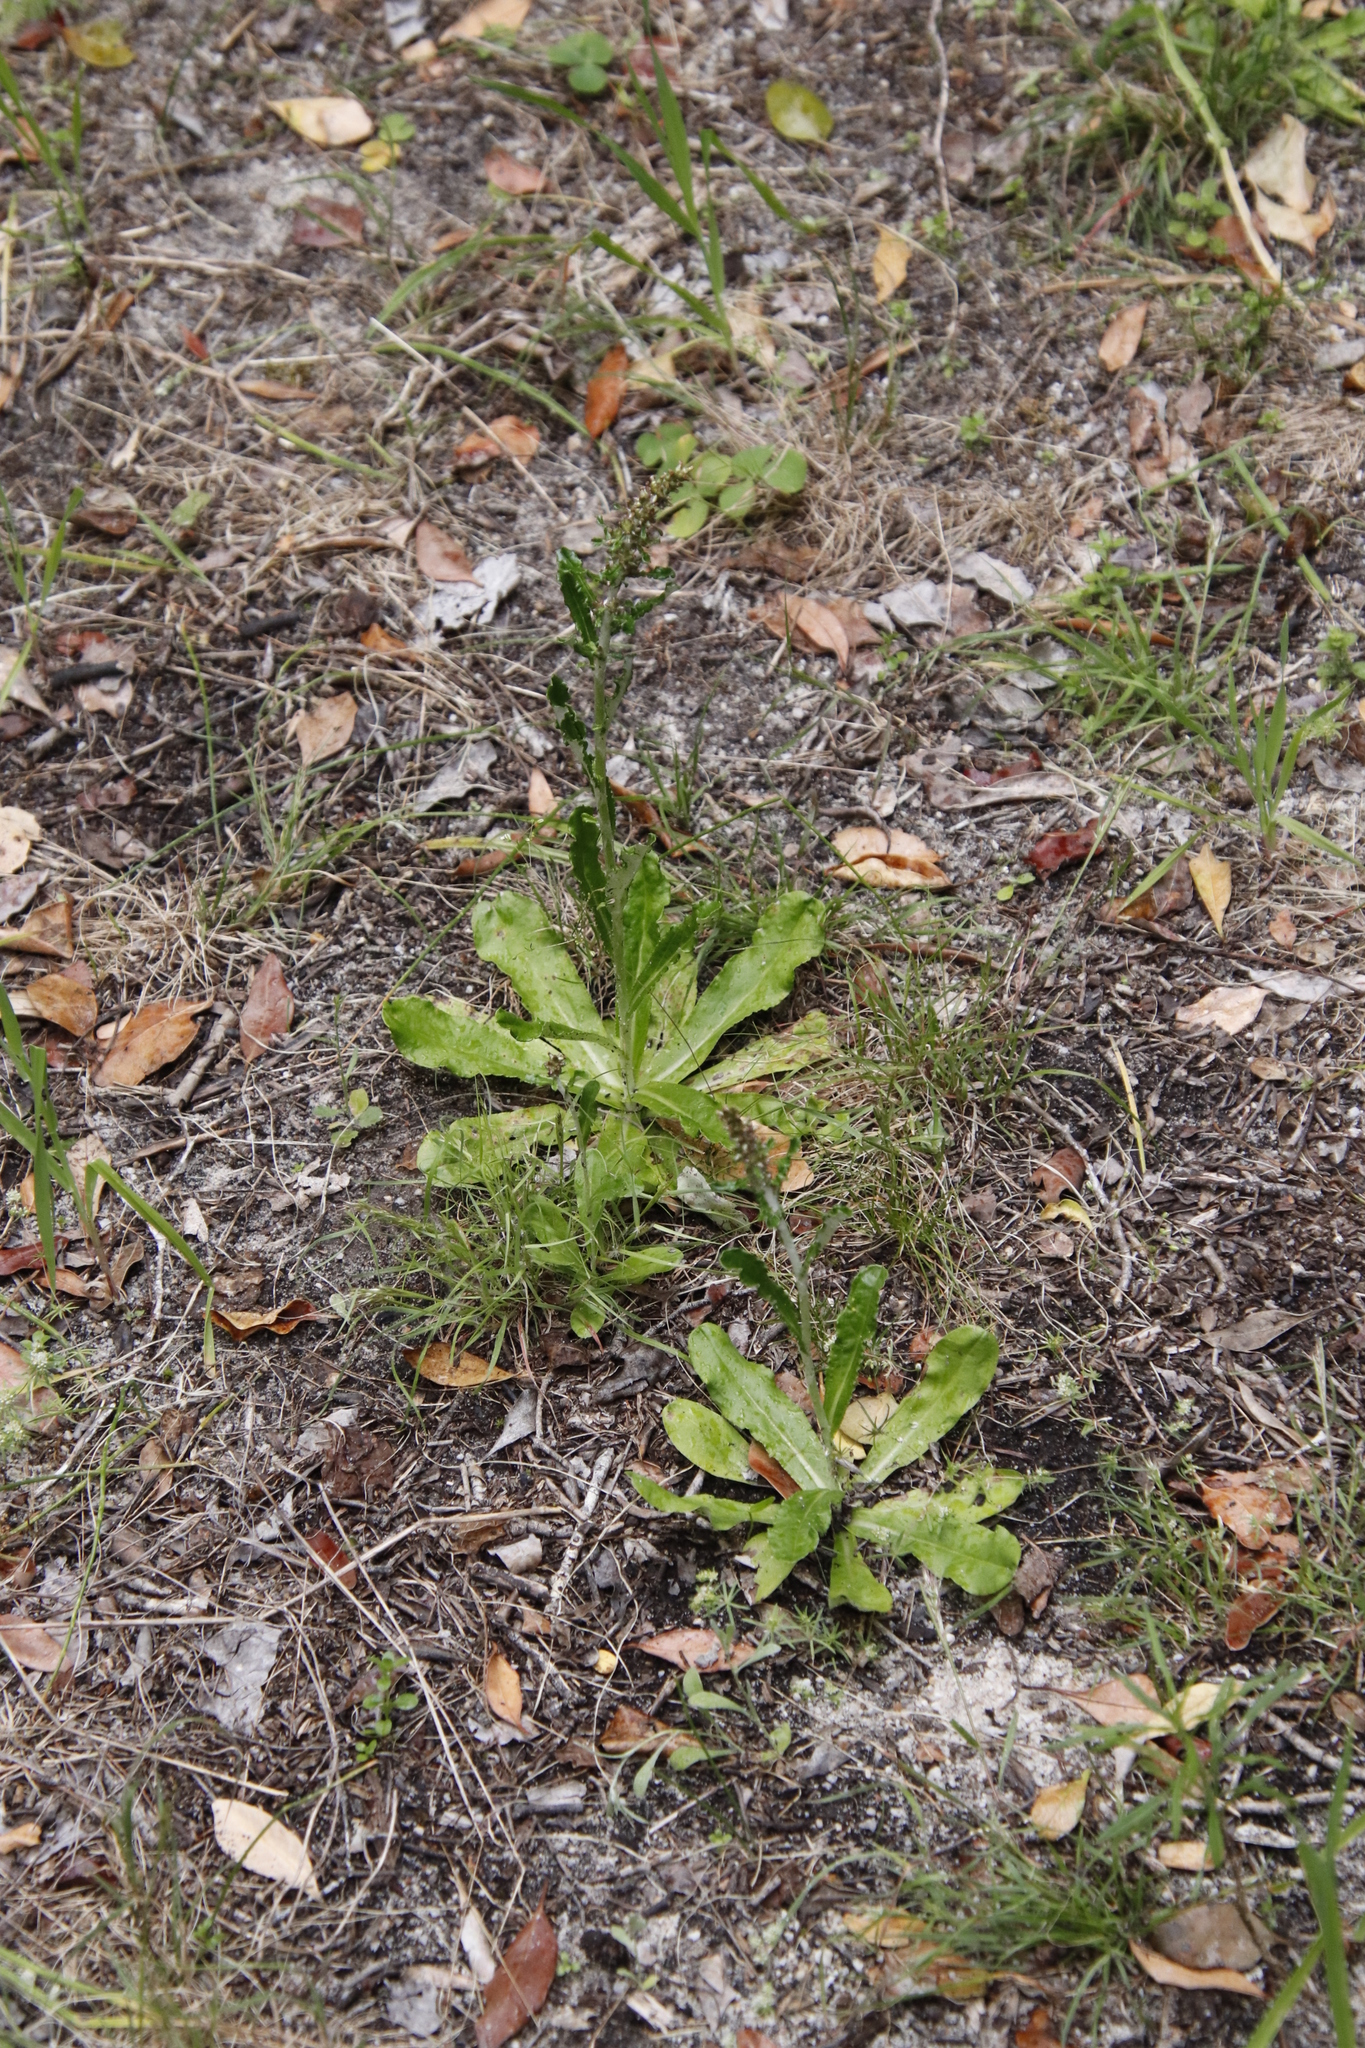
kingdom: Plantae
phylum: Tracheophyta
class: Magnoliopsida
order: Asterales
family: Asteraceae
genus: Gamochaeta
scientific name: Gamochaeta americana
